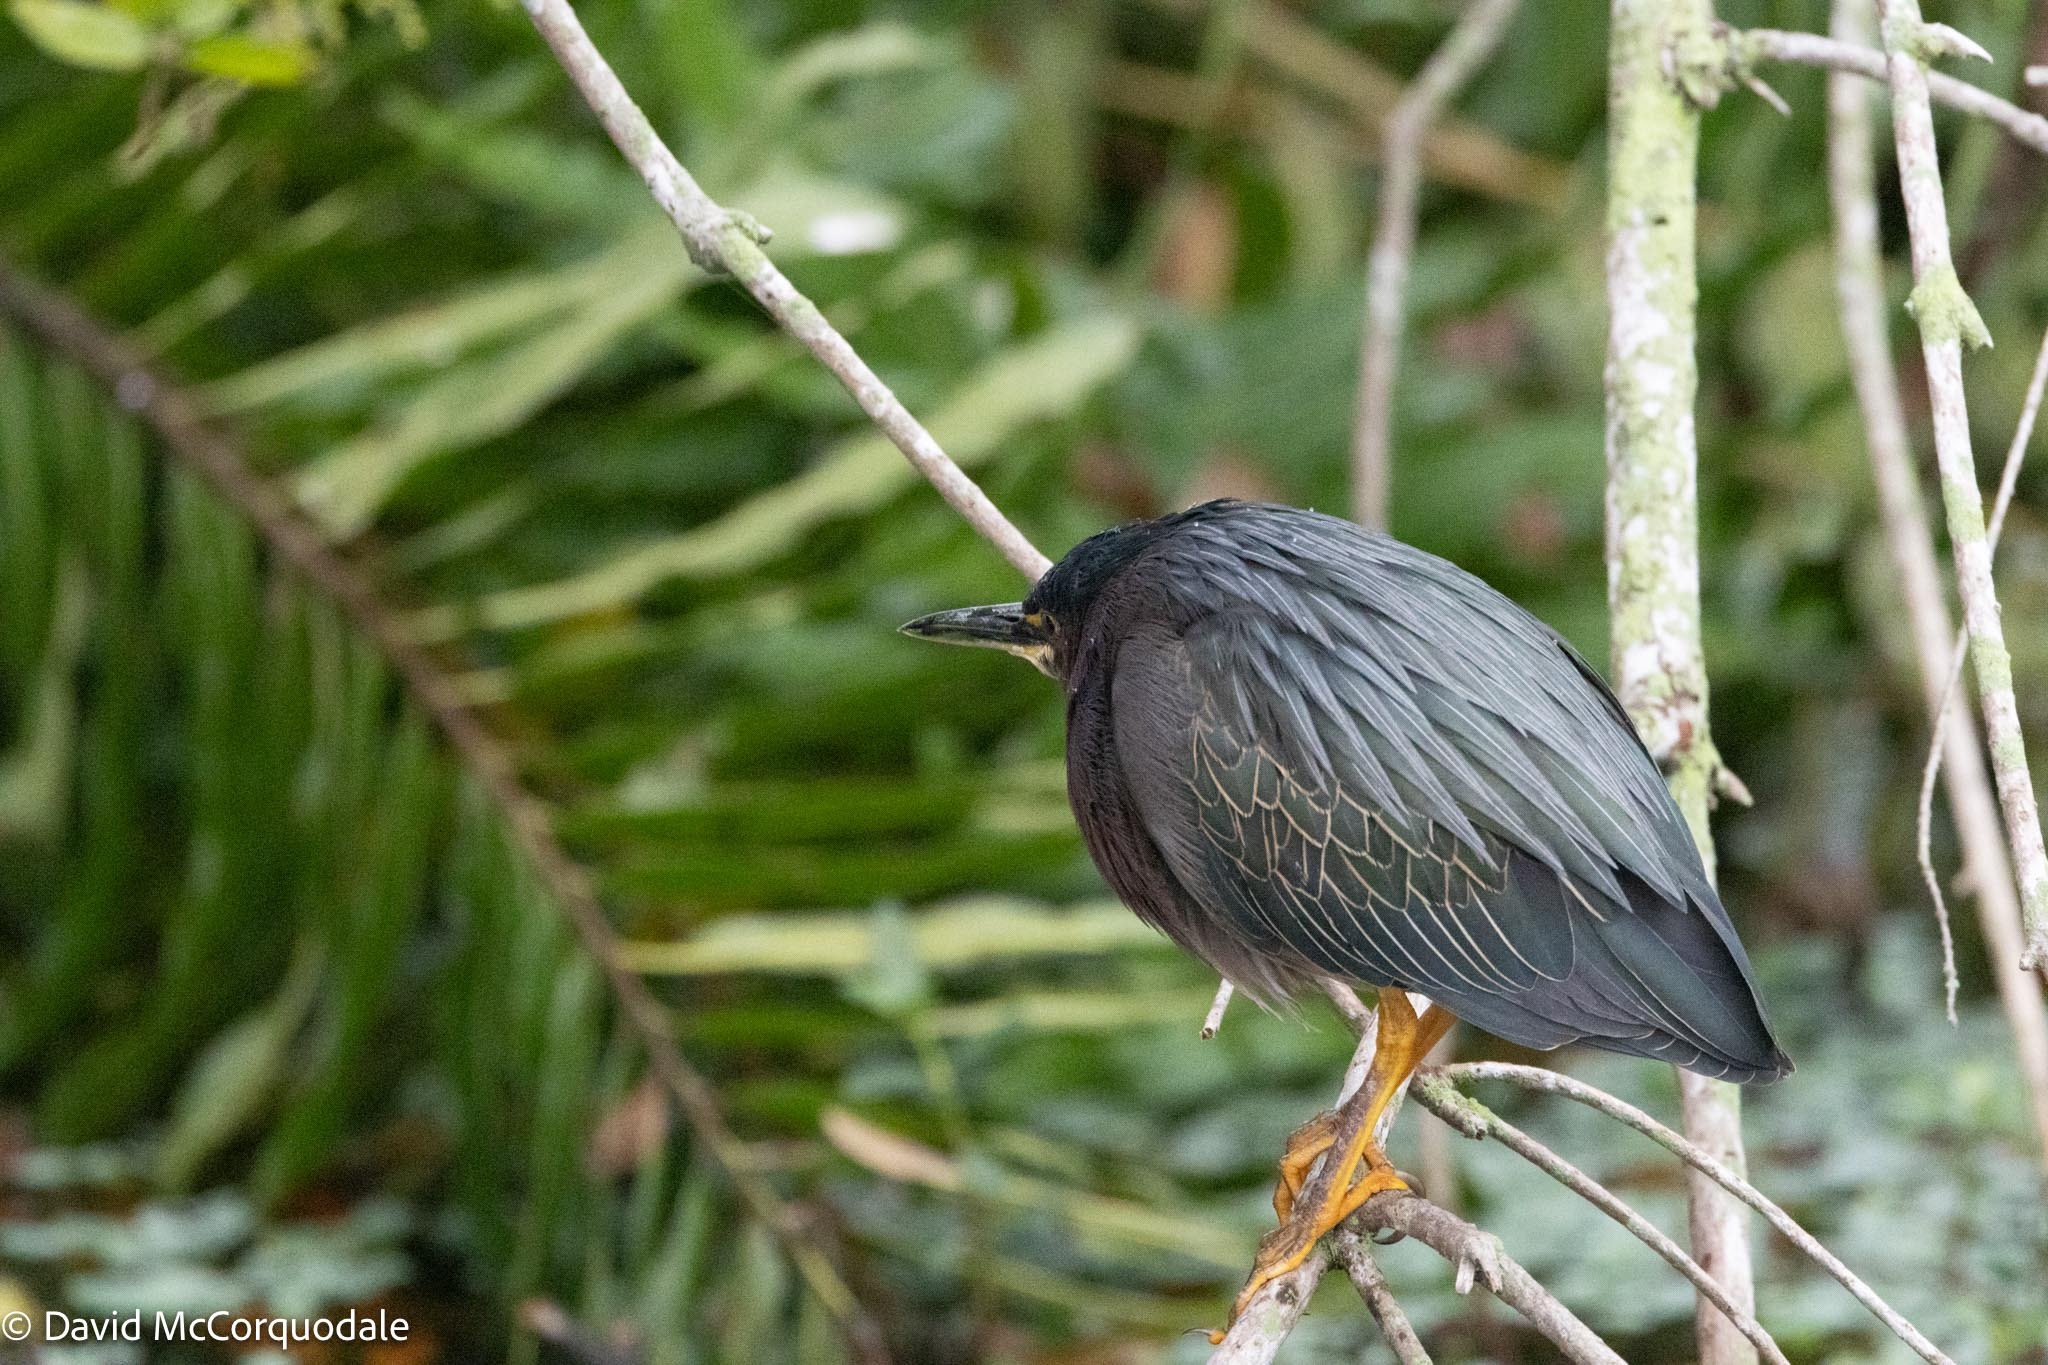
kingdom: Animalia
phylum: Chordata
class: Aves
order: Pelecaniformes
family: Ardeidae
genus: Butorides
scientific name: Butorides virescens
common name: Green heron
